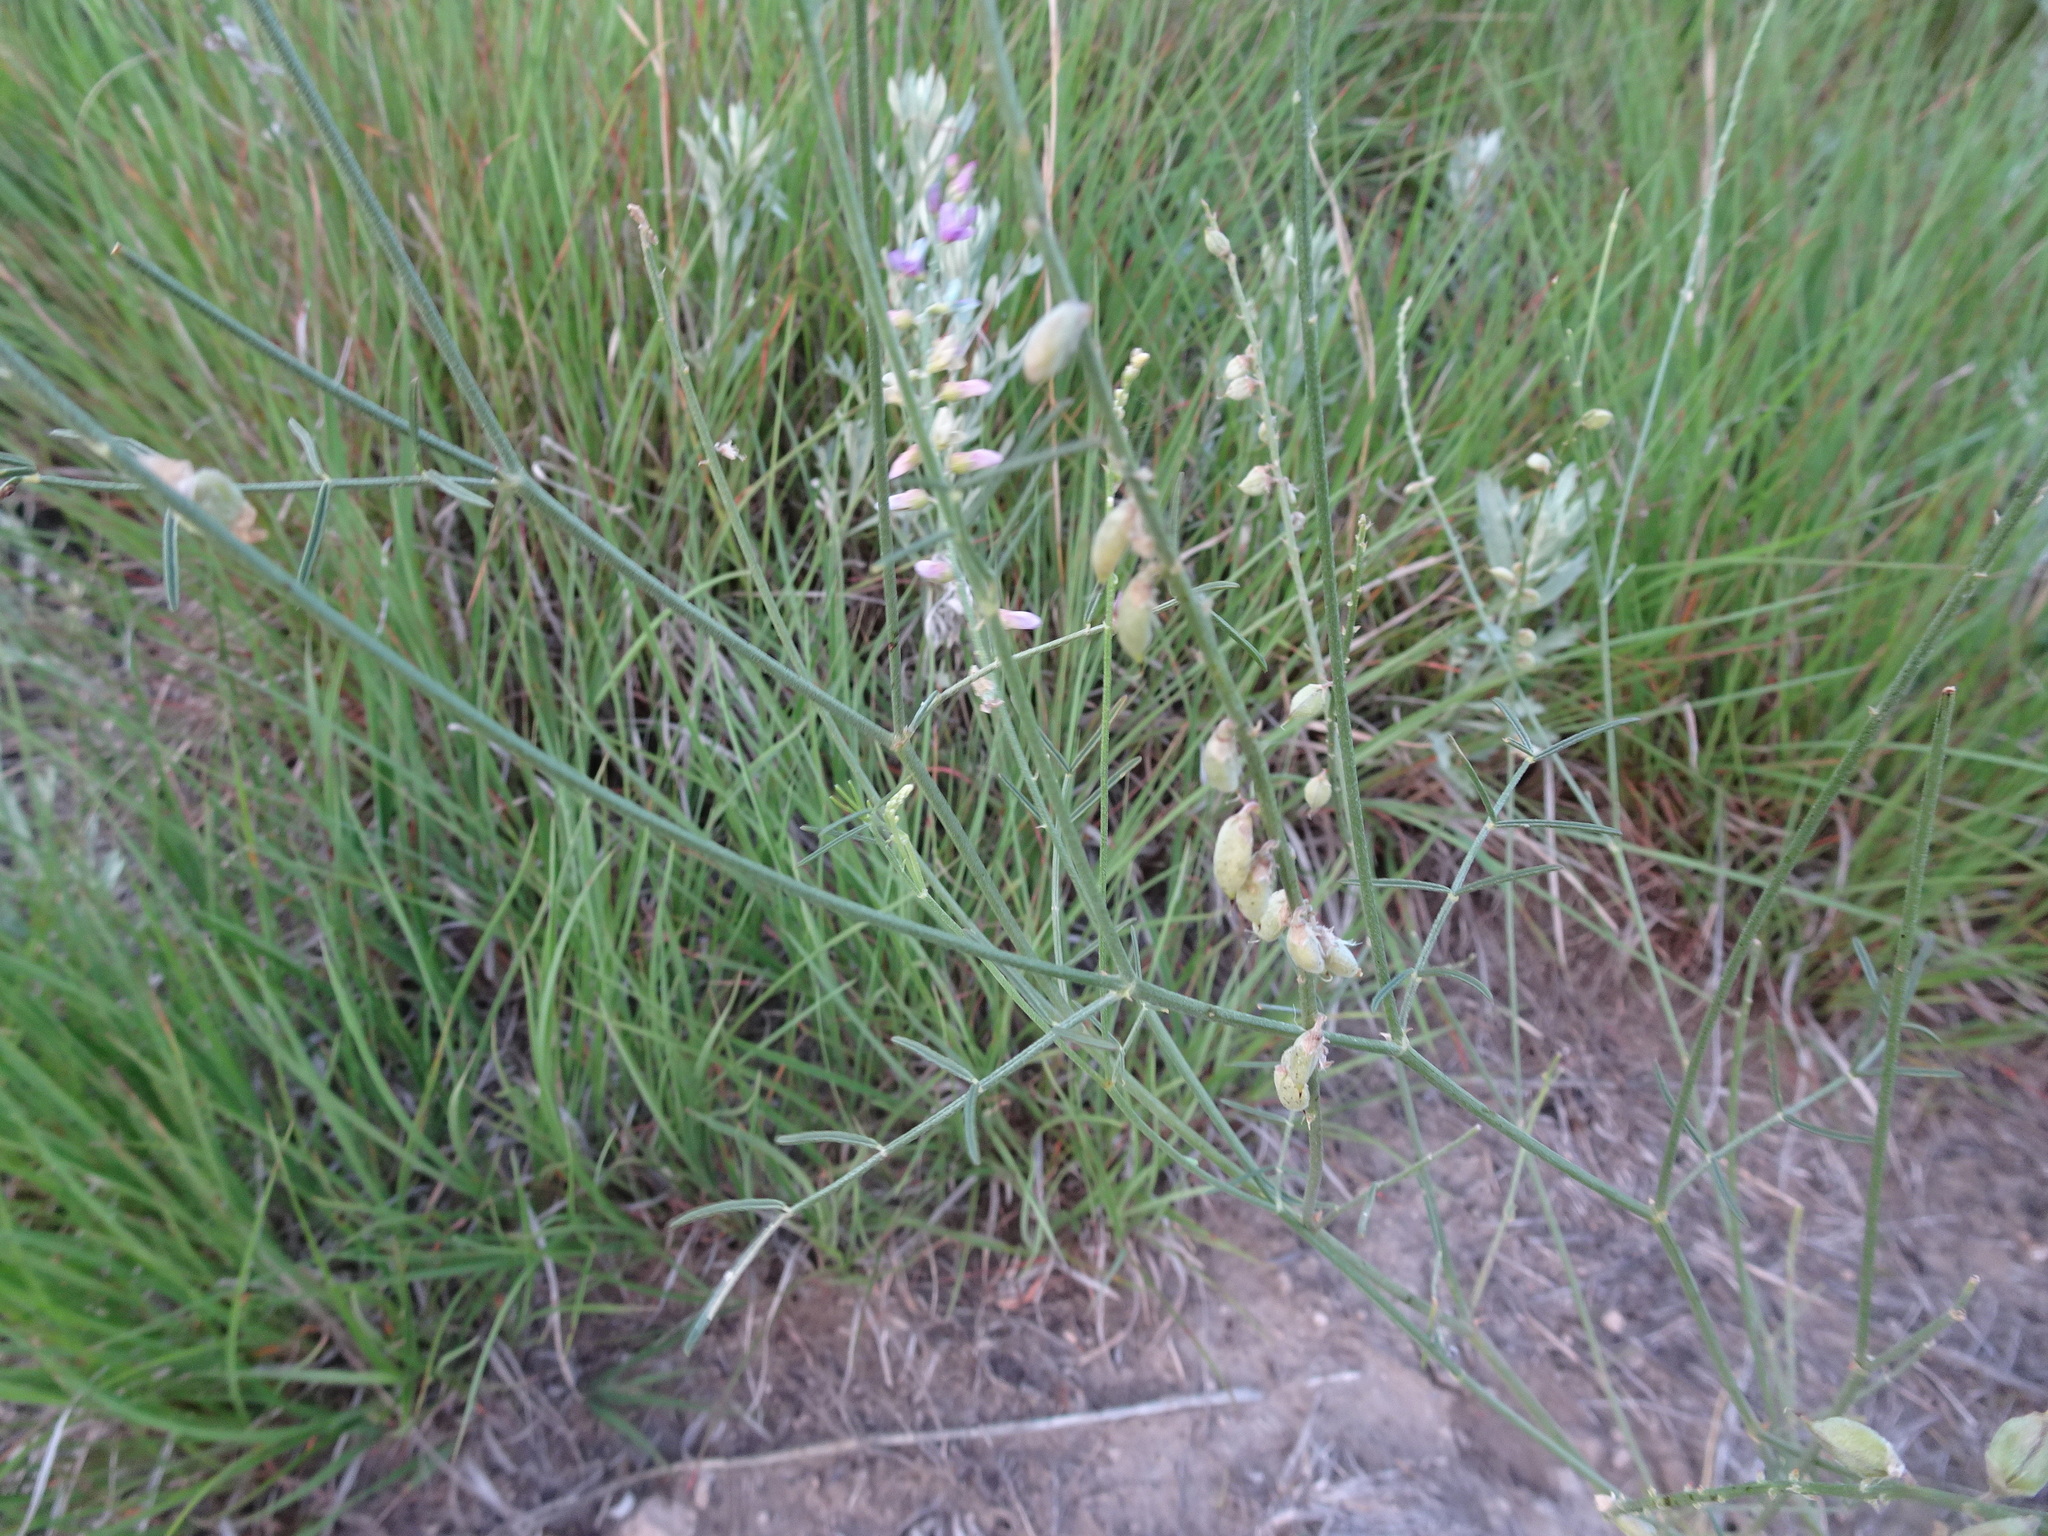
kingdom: Plantae
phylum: Tracheophyta
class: Magnoliopsida
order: Fabales
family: Fabaceae
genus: Astragalus
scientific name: Astragalus gracilis
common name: Slender milk-vetch
